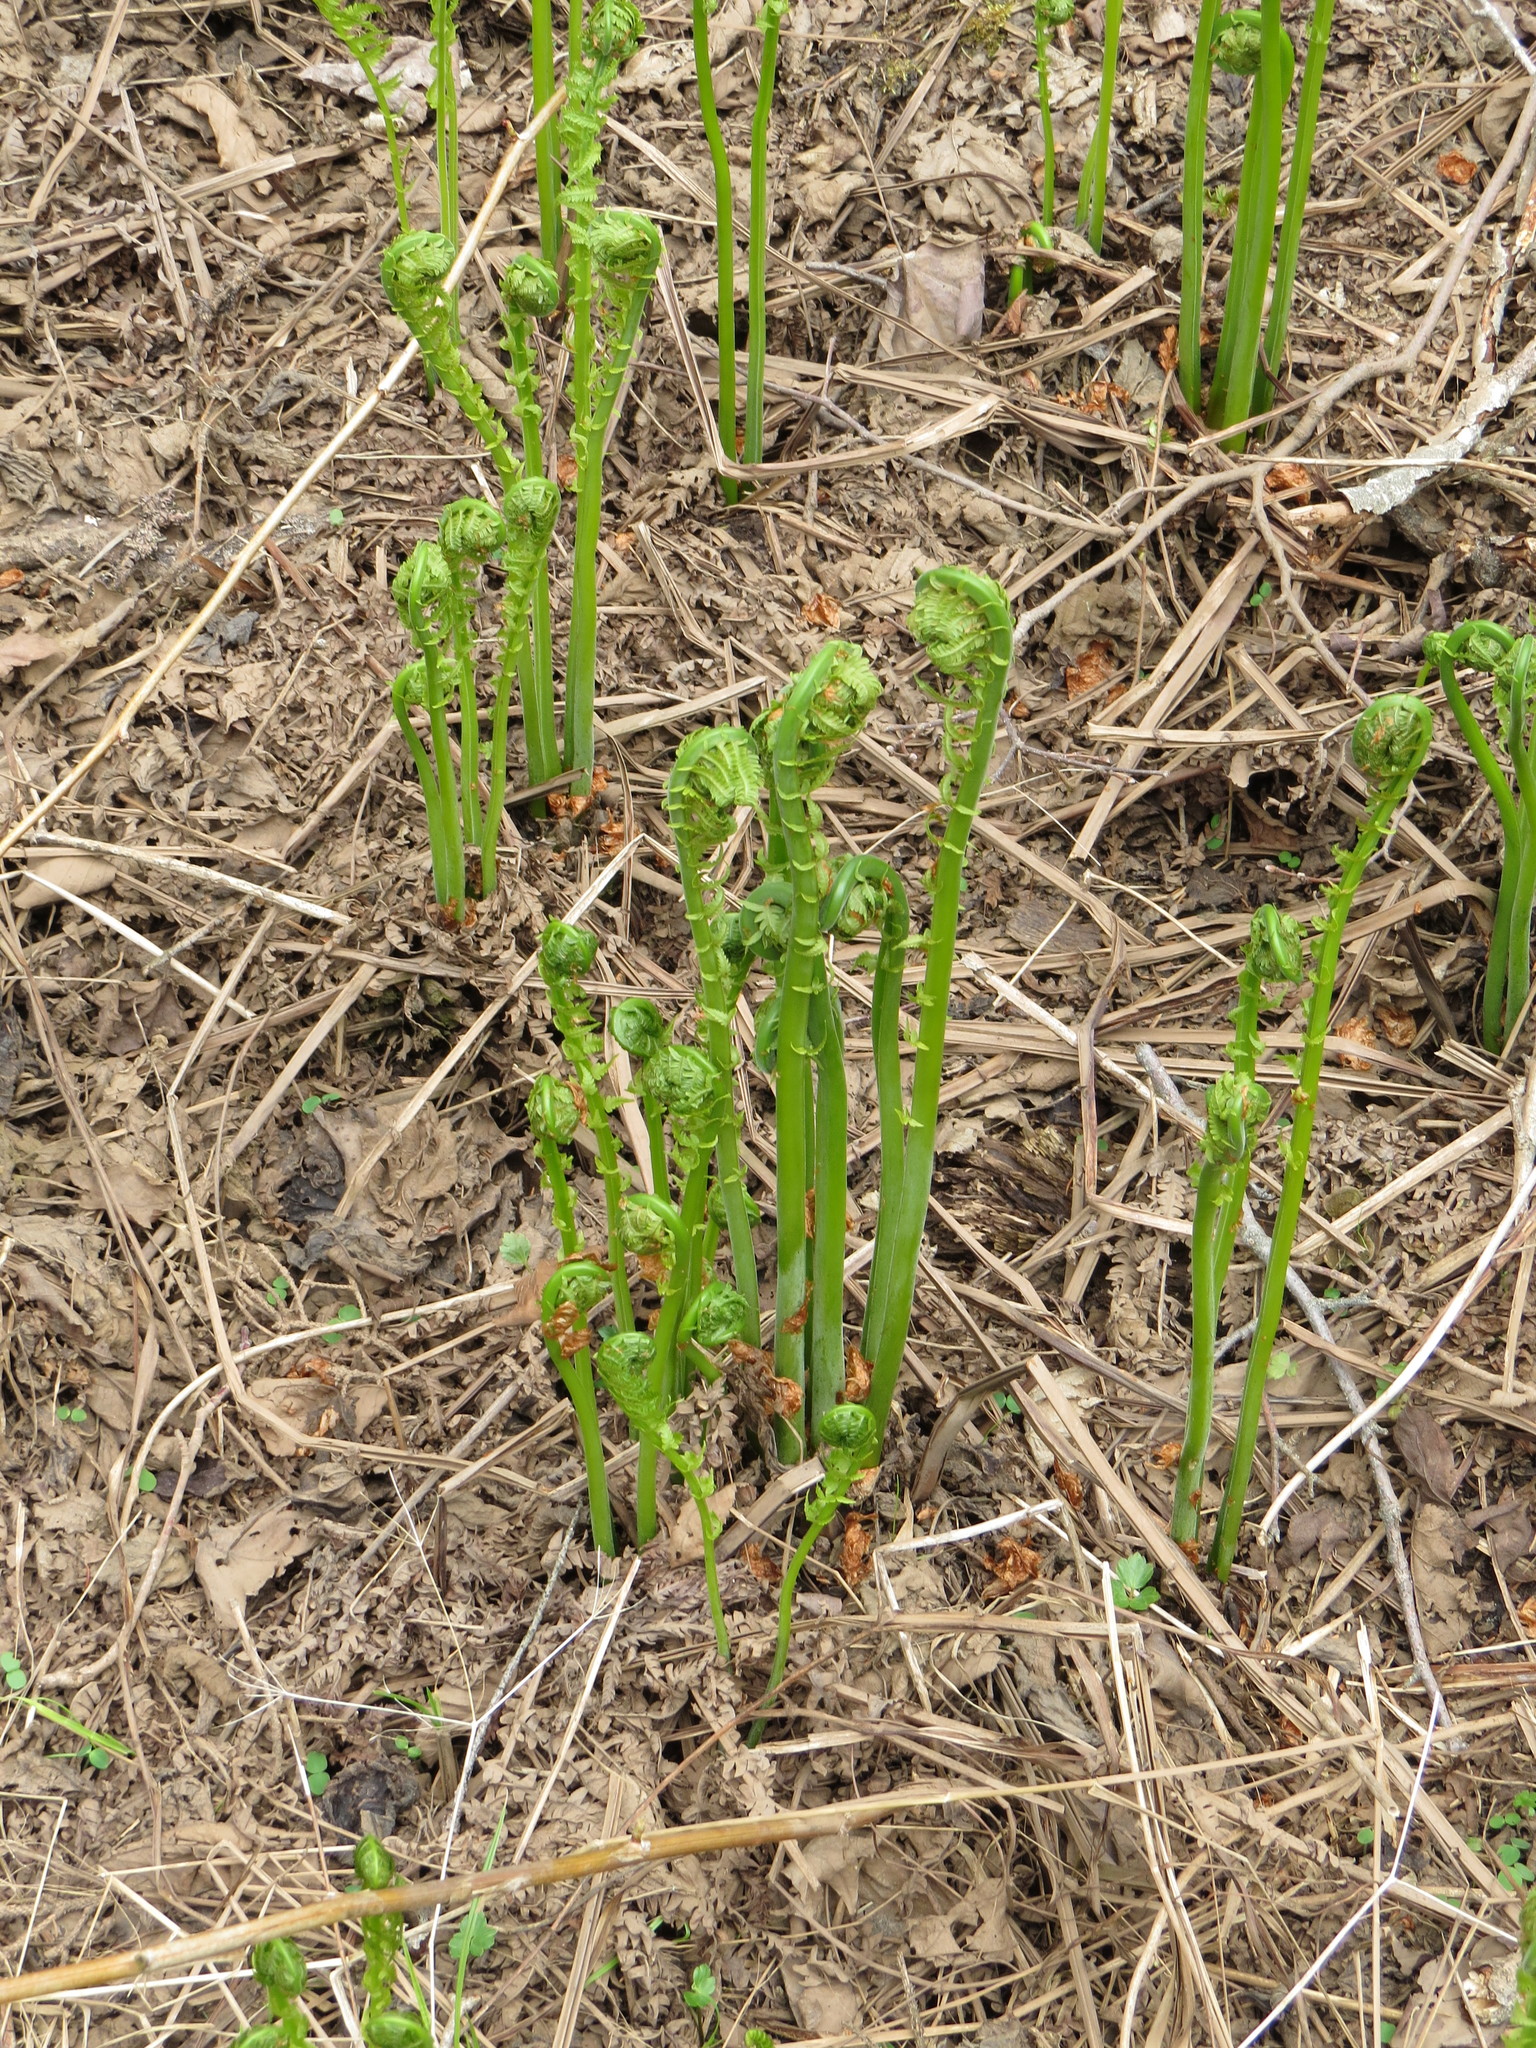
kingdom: Plantae
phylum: Tracheophyta
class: Polypodiopsida
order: Polypodiales
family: Onocleaceae
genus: Matteuccia
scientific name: Matteuccia struthiopteris
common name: Ostrich fern
